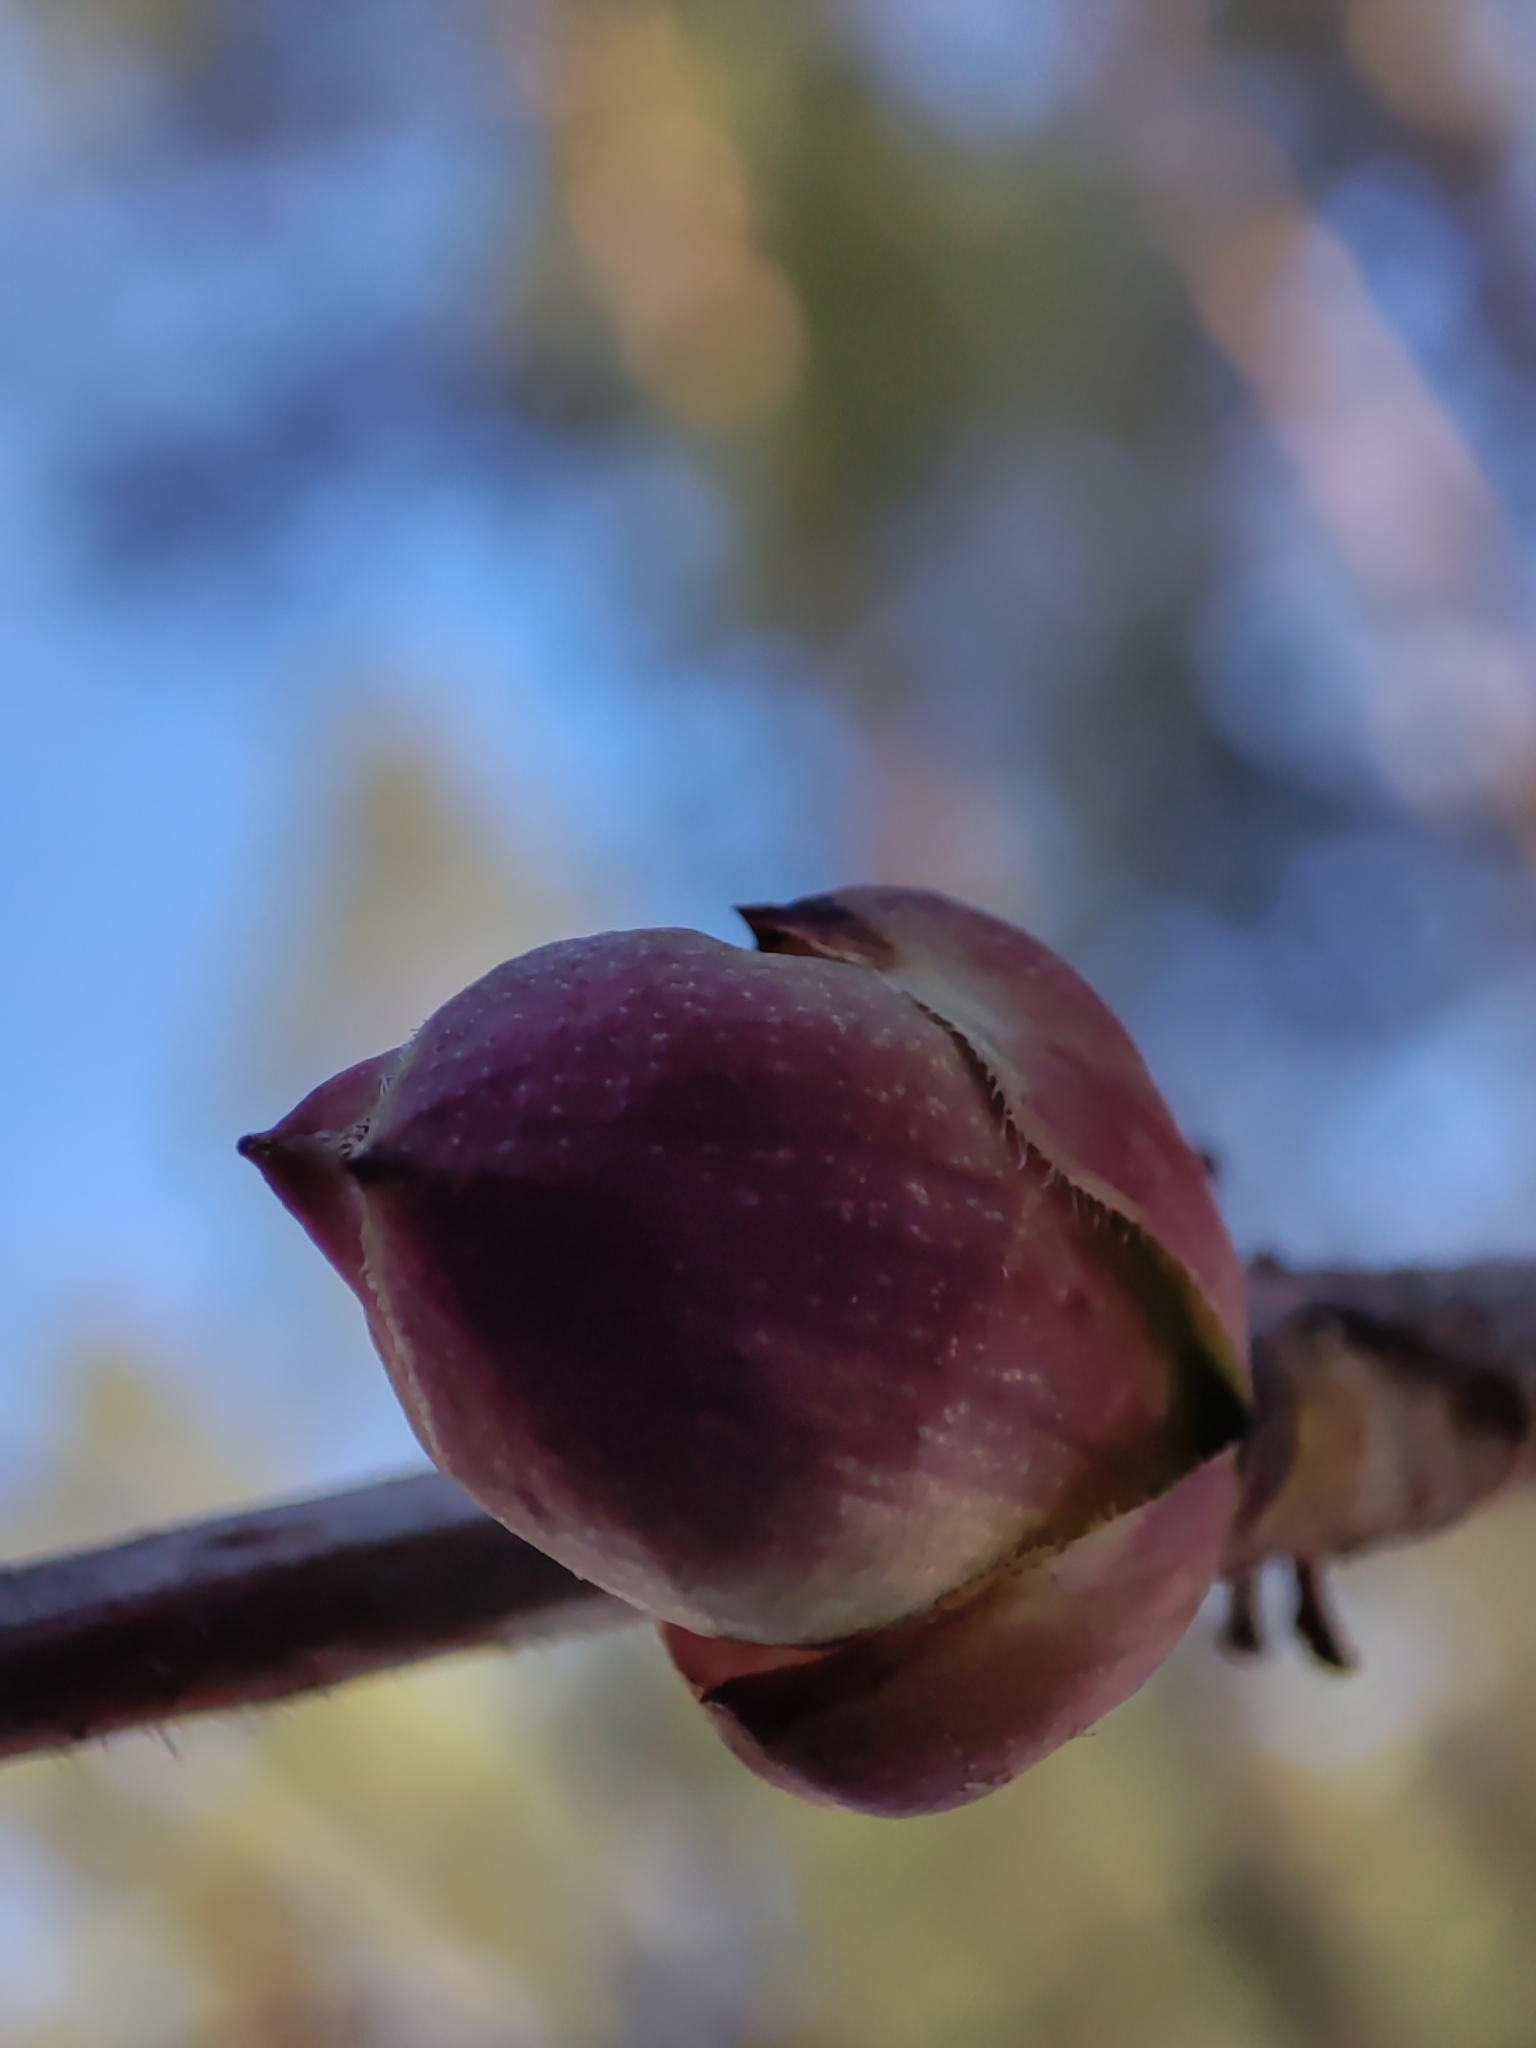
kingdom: Plantae
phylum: Tracheophyta
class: Magnoliopsida
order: Dipsacales
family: Viburnaceae
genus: Sambucus
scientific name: Sambucus racemosa
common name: Red-berried elder
